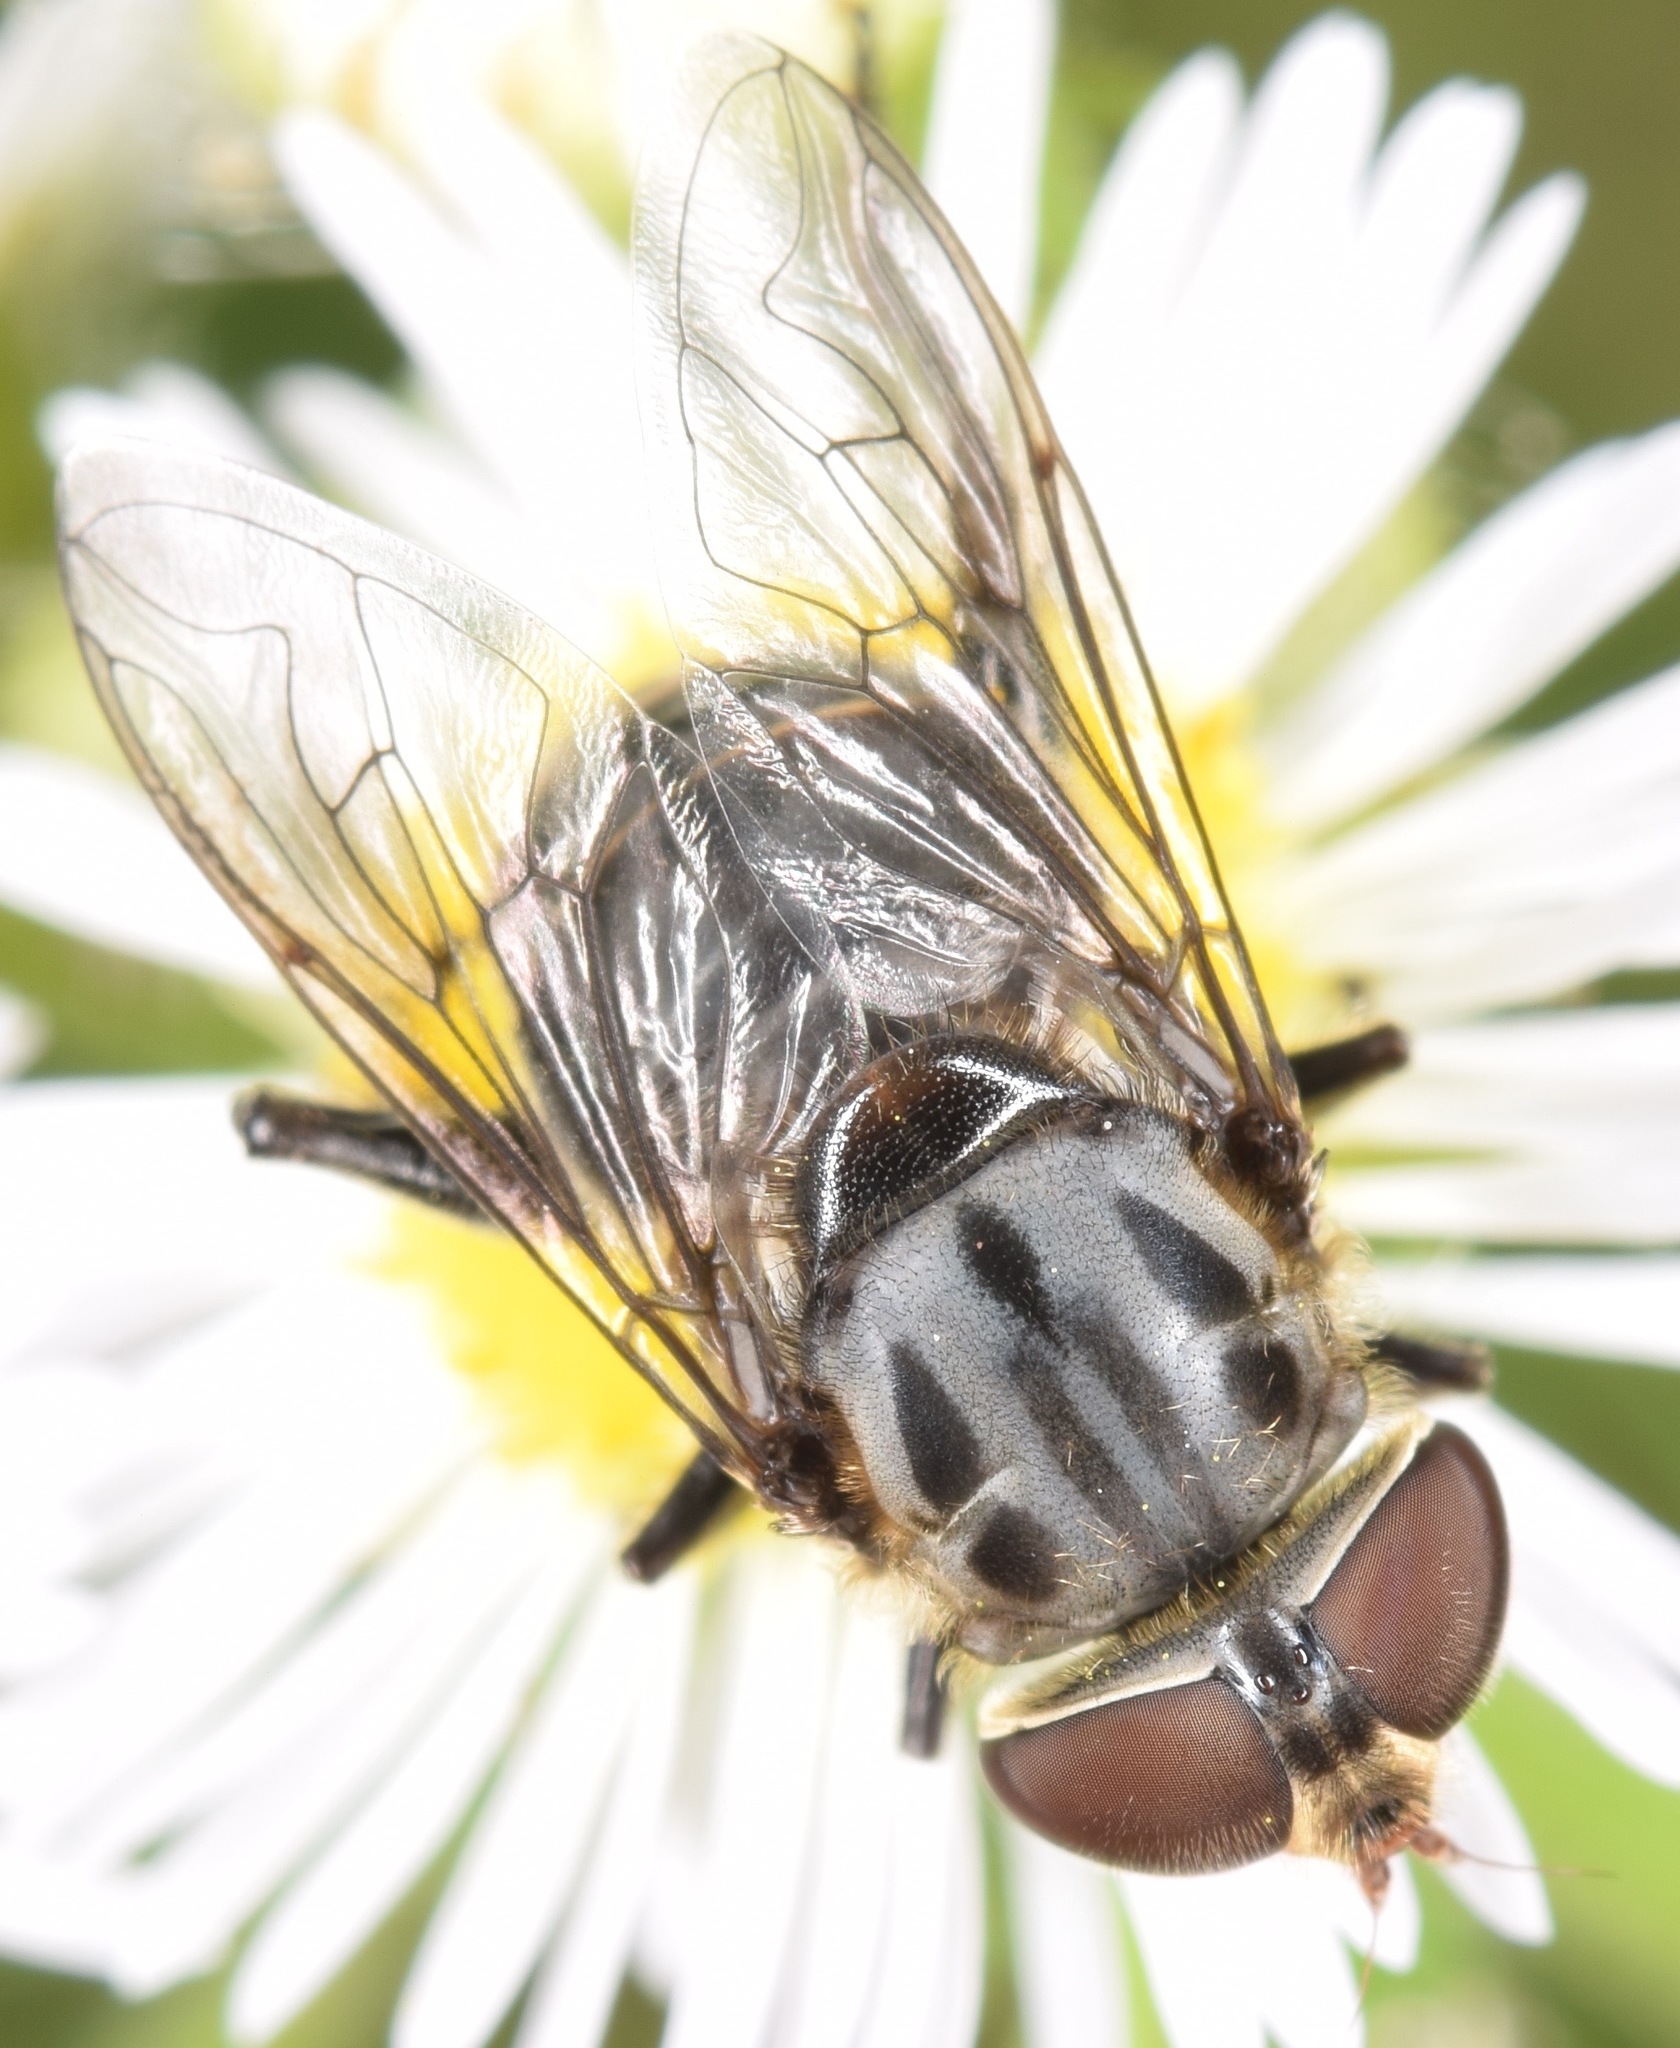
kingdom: Animalia
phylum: Arthropoda
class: Insecta
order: Diptera
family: Syrphidae
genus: Palpada
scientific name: Palpada furcata
